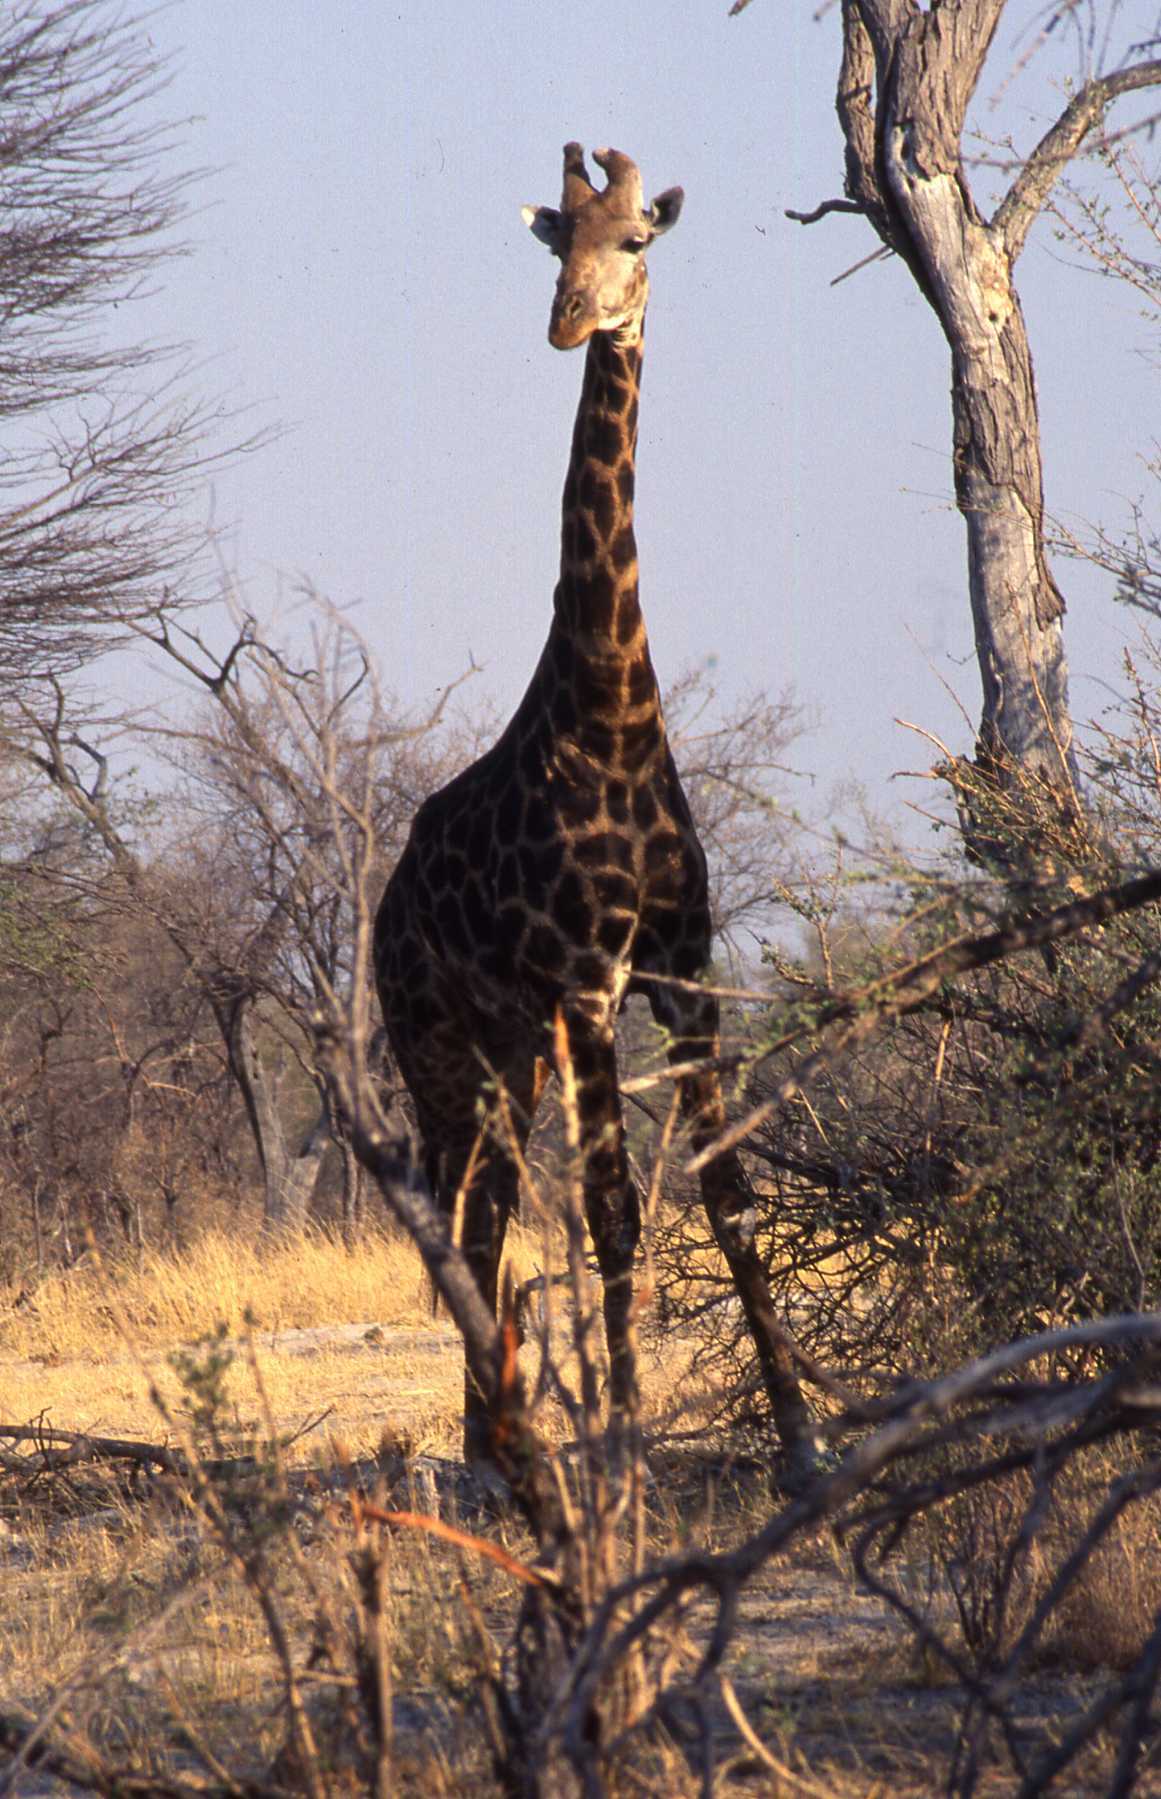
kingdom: Animalia
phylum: Chordata
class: Mammalia
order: Artiodactyla
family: Giraffidae
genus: Giraffa
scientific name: Giraffa giraffa
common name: Southern giraffe
